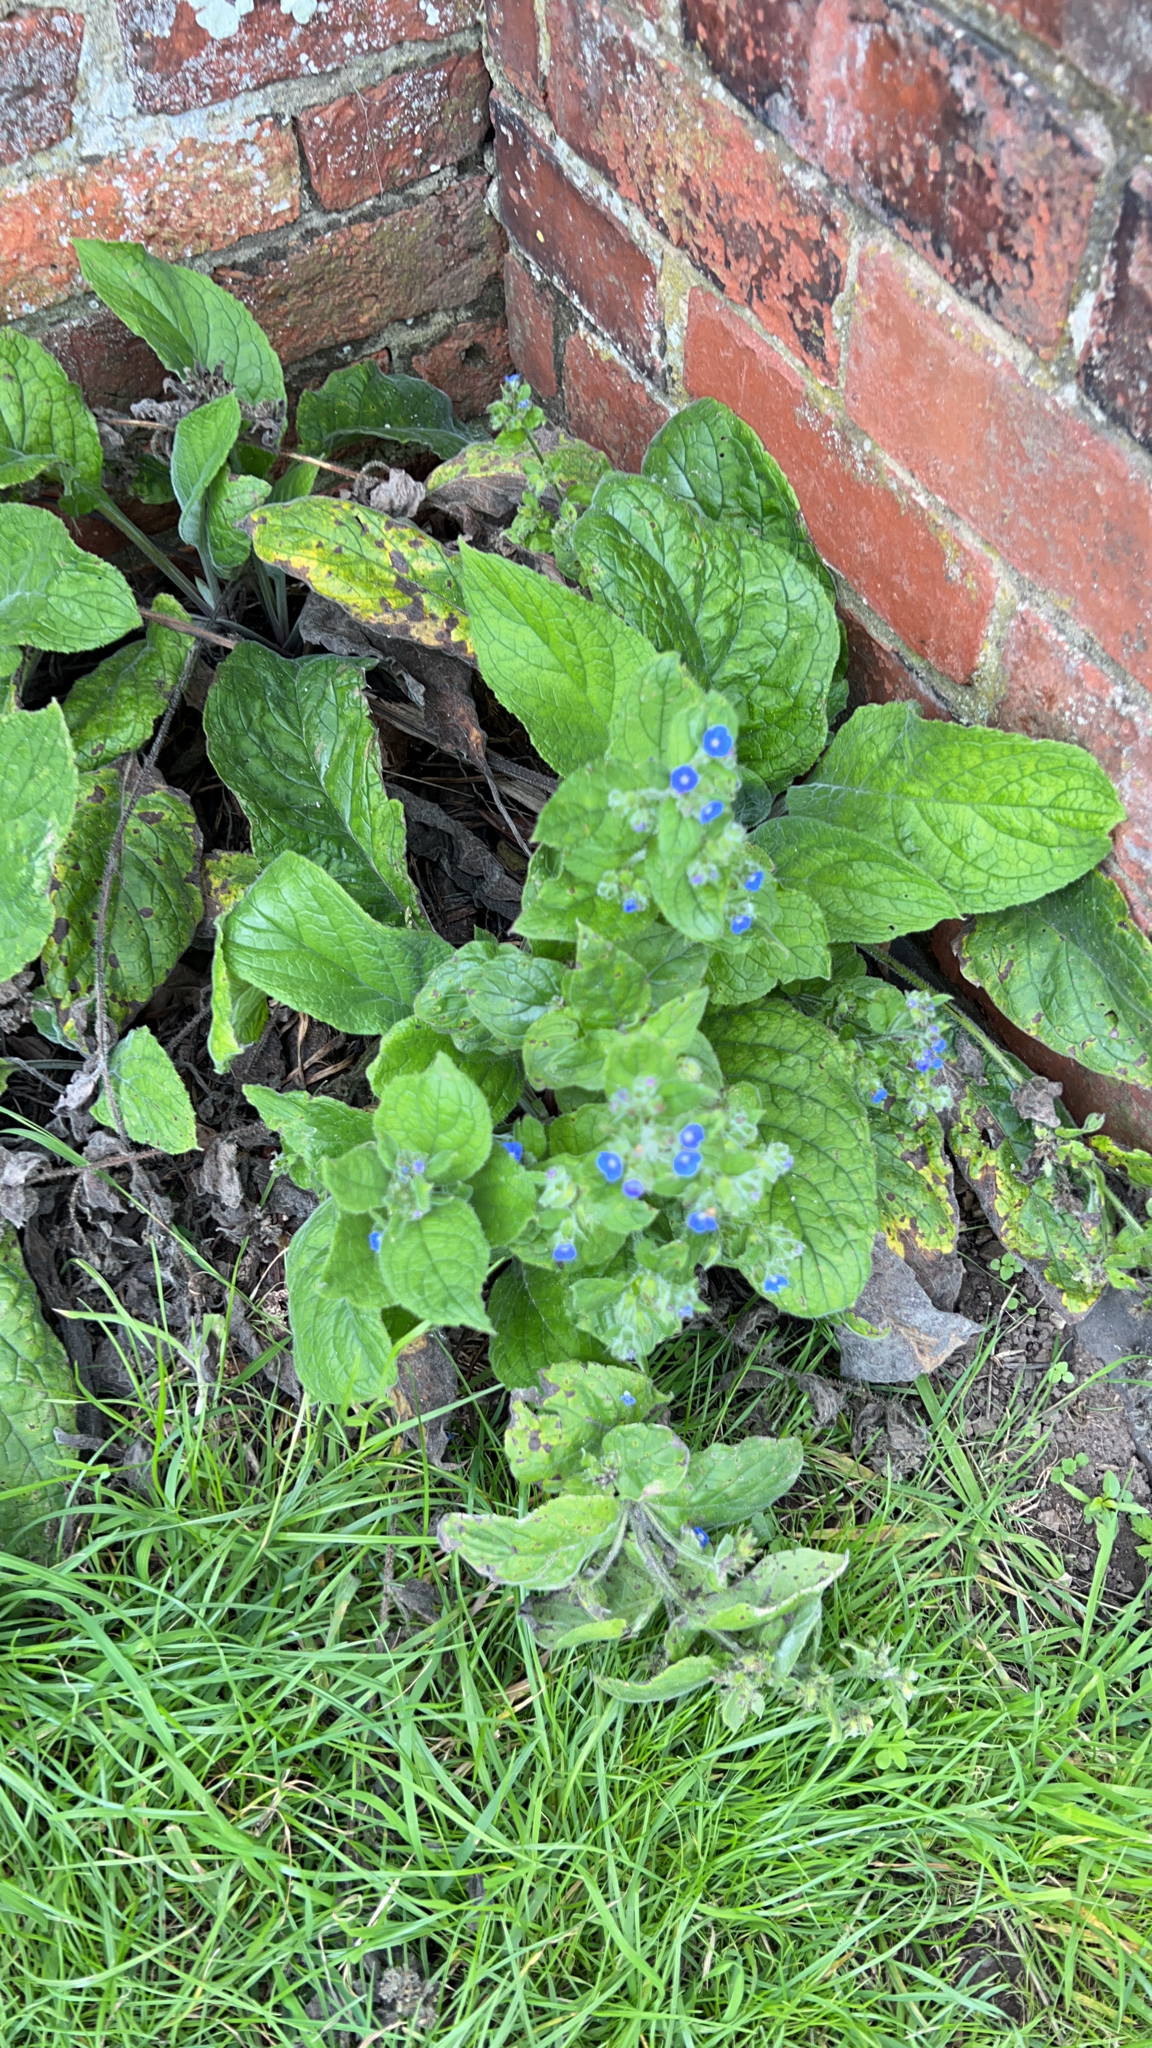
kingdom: Plantae
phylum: Tracheophyta
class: Magnoliopsida
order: Boraginales
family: Boraginaceae
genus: Pentaglottis
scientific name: Pentaglottis sempervirens
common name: Green alkanet
